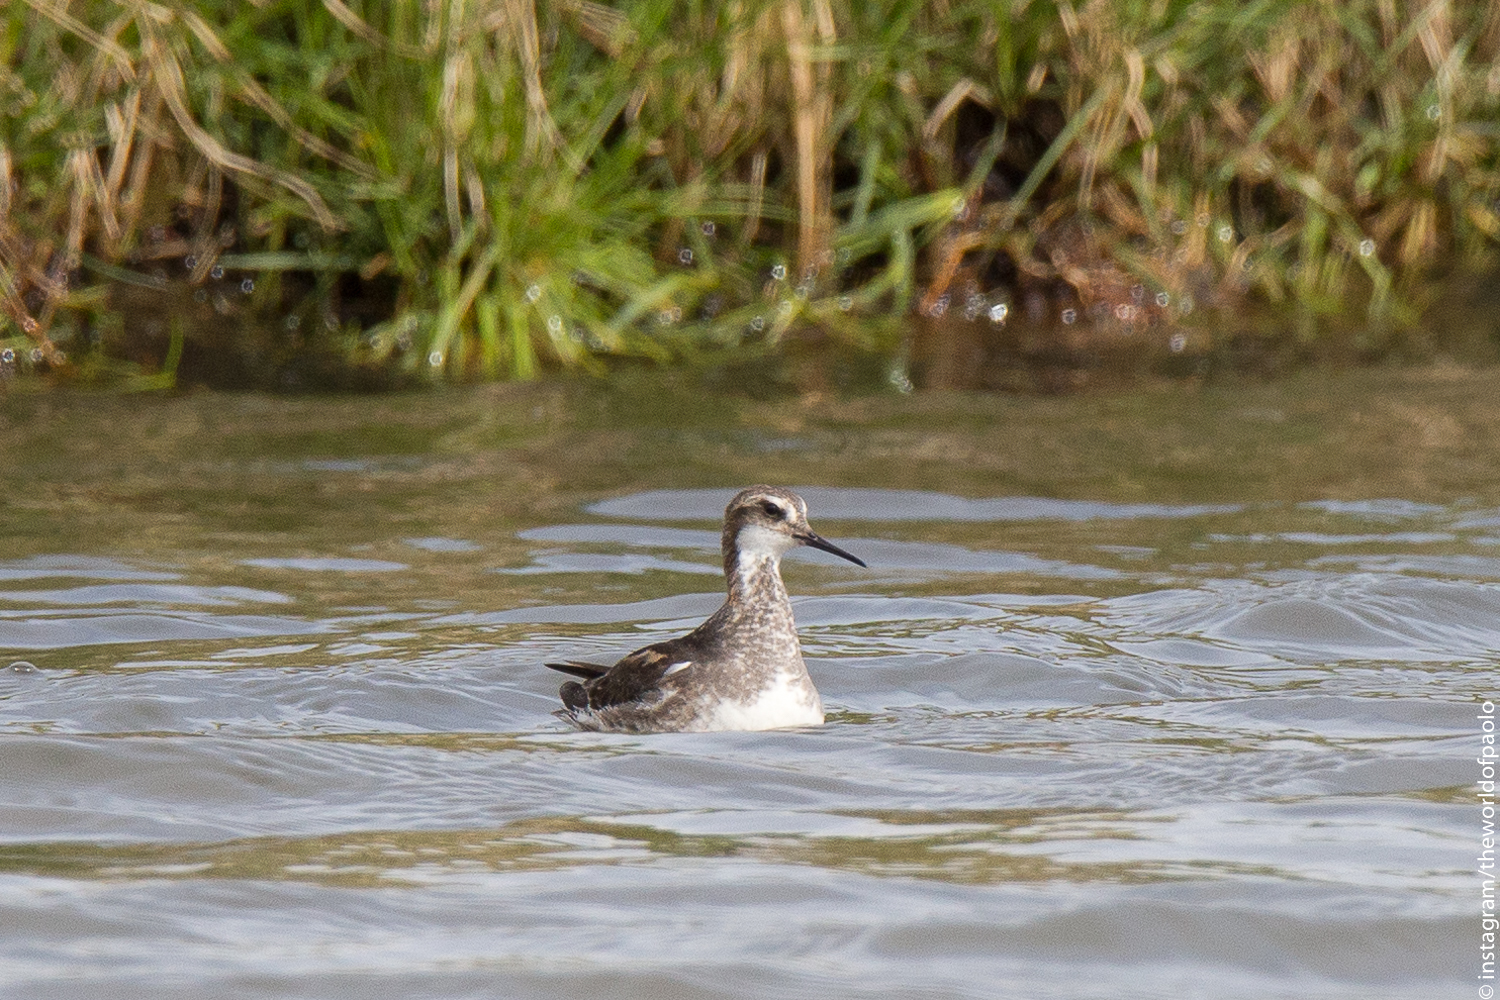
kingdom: Animalia
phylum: Chordata
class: Aves
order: Charadriiformes
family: Scolopacidae
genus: Phalaropus
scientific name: Phalaropus lobatus
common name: Red-necked phalarope
